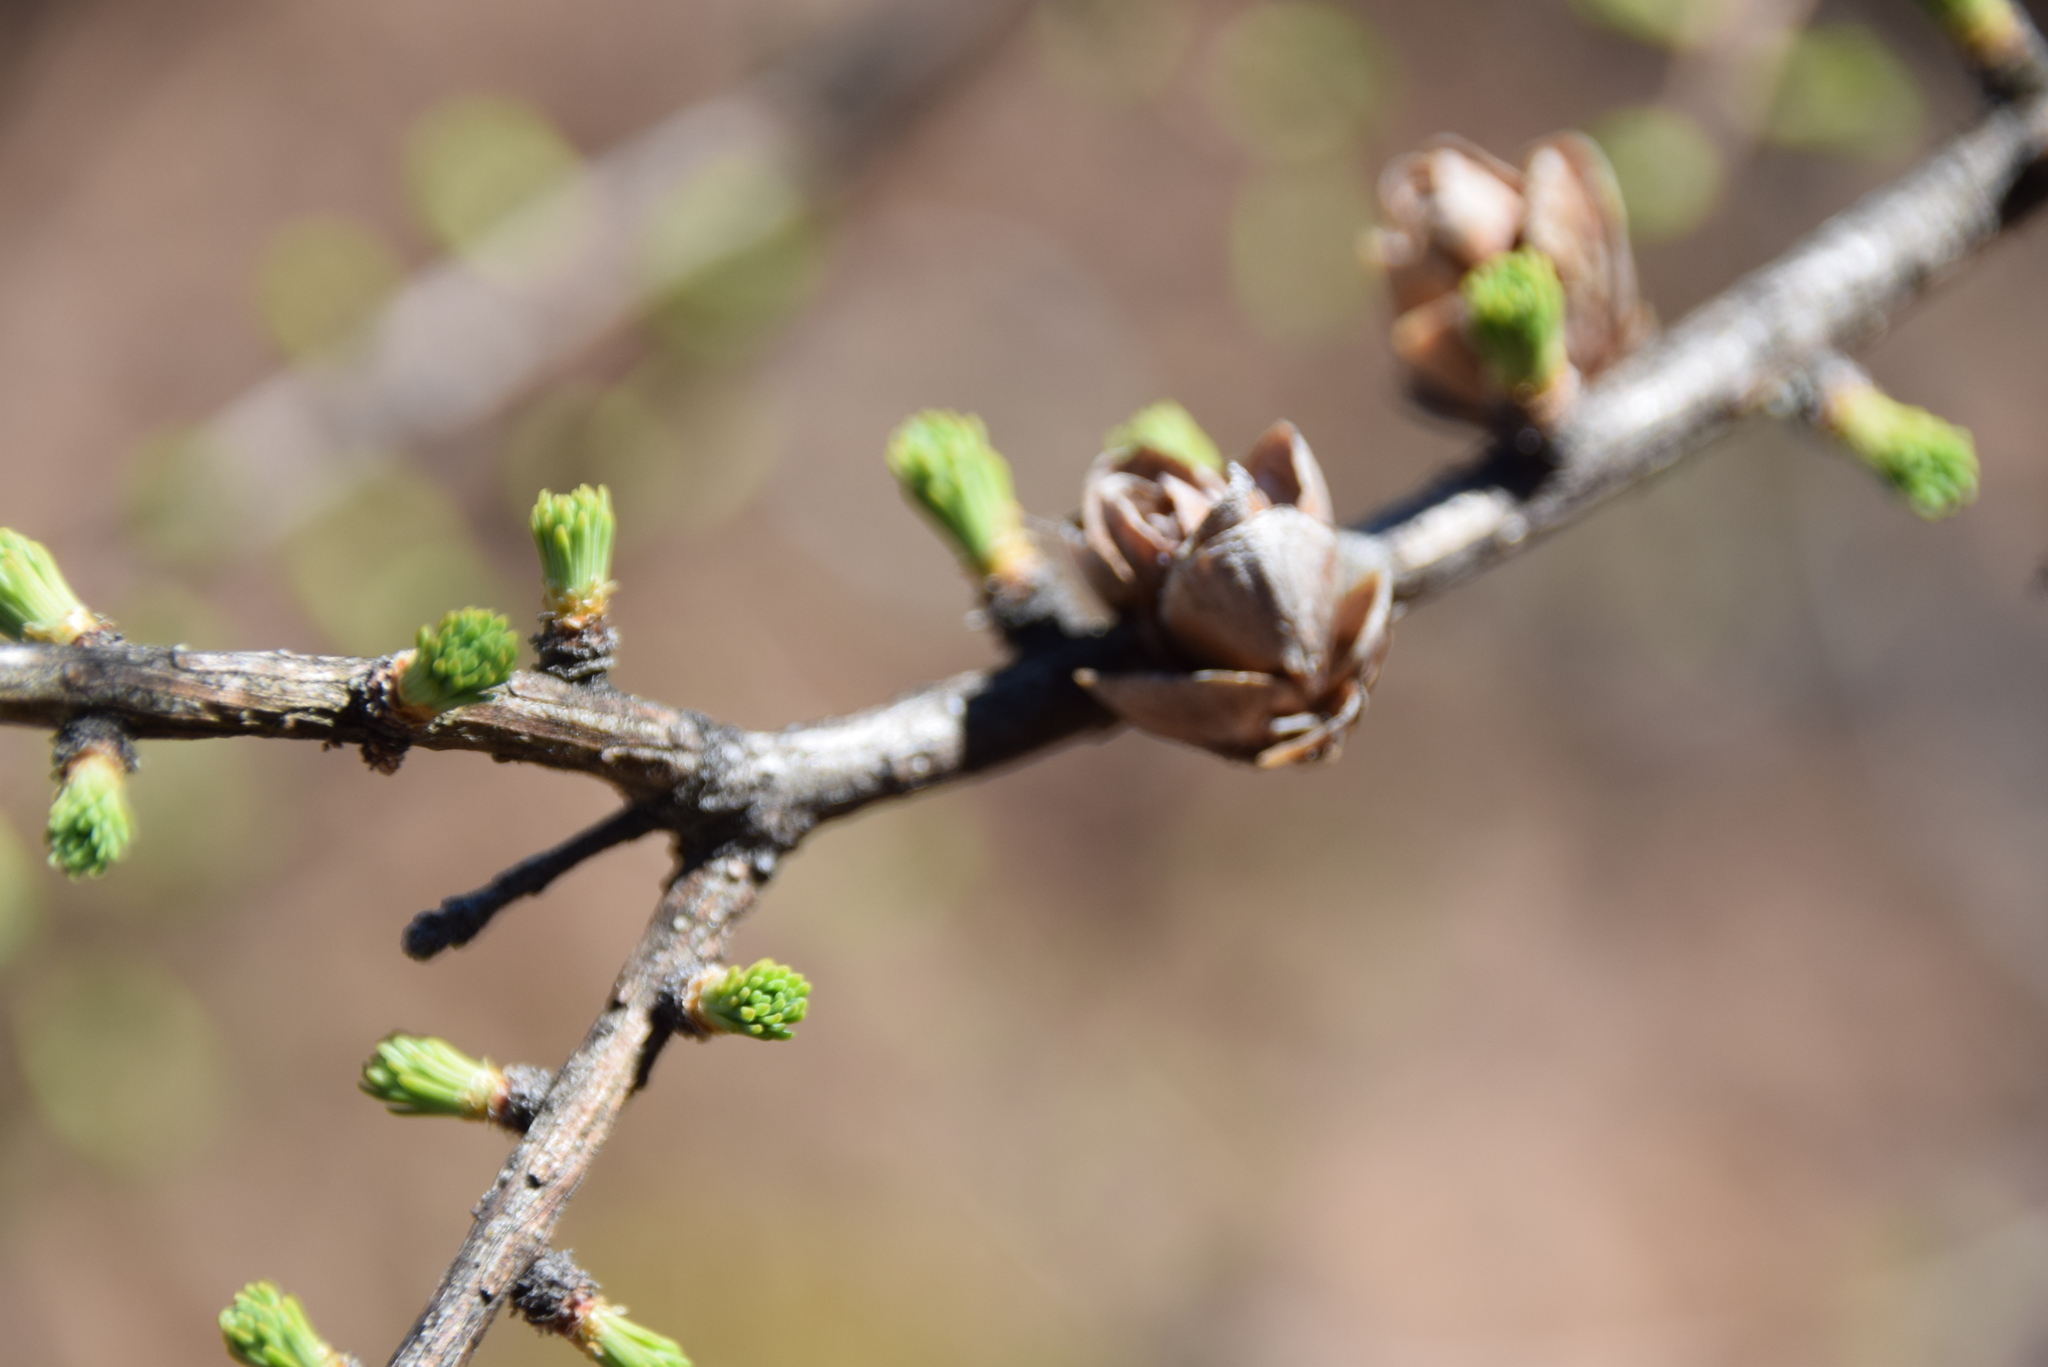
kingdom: Plantae
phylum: Tracheophyta
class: Pinopsida
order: Pinales
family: Pinaceae
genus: Larix
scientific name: Larix laricina
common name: American larch
